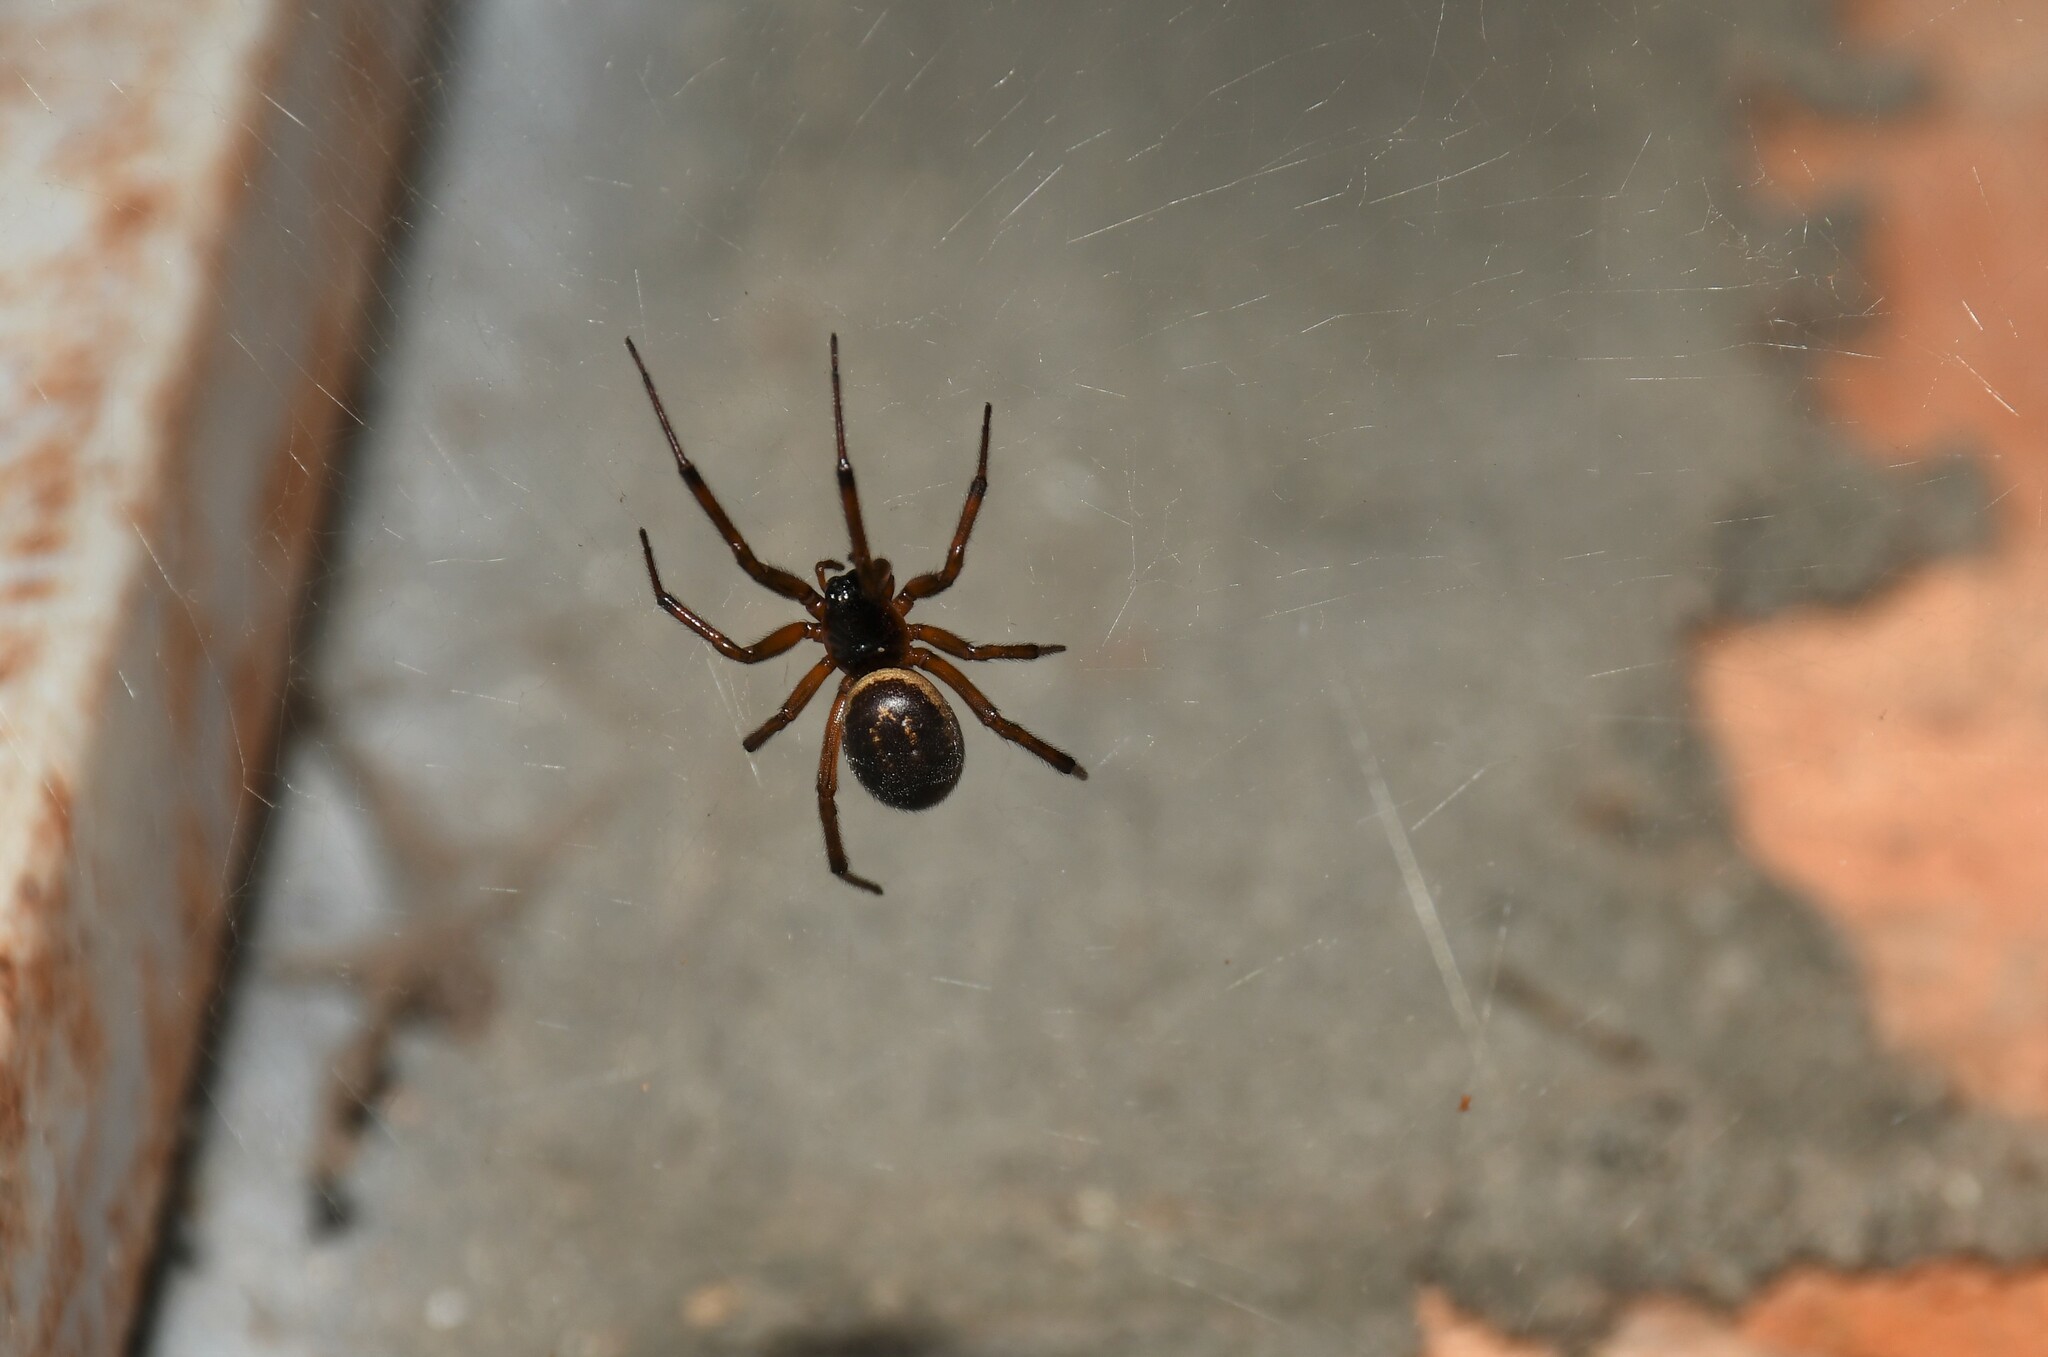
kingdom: Animalia
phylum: Arthropoda
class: Arachnida
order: Araneae
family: Theridiidae
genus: Steatoda
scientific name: Steatoda nobilis
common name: Cobweb weaver
